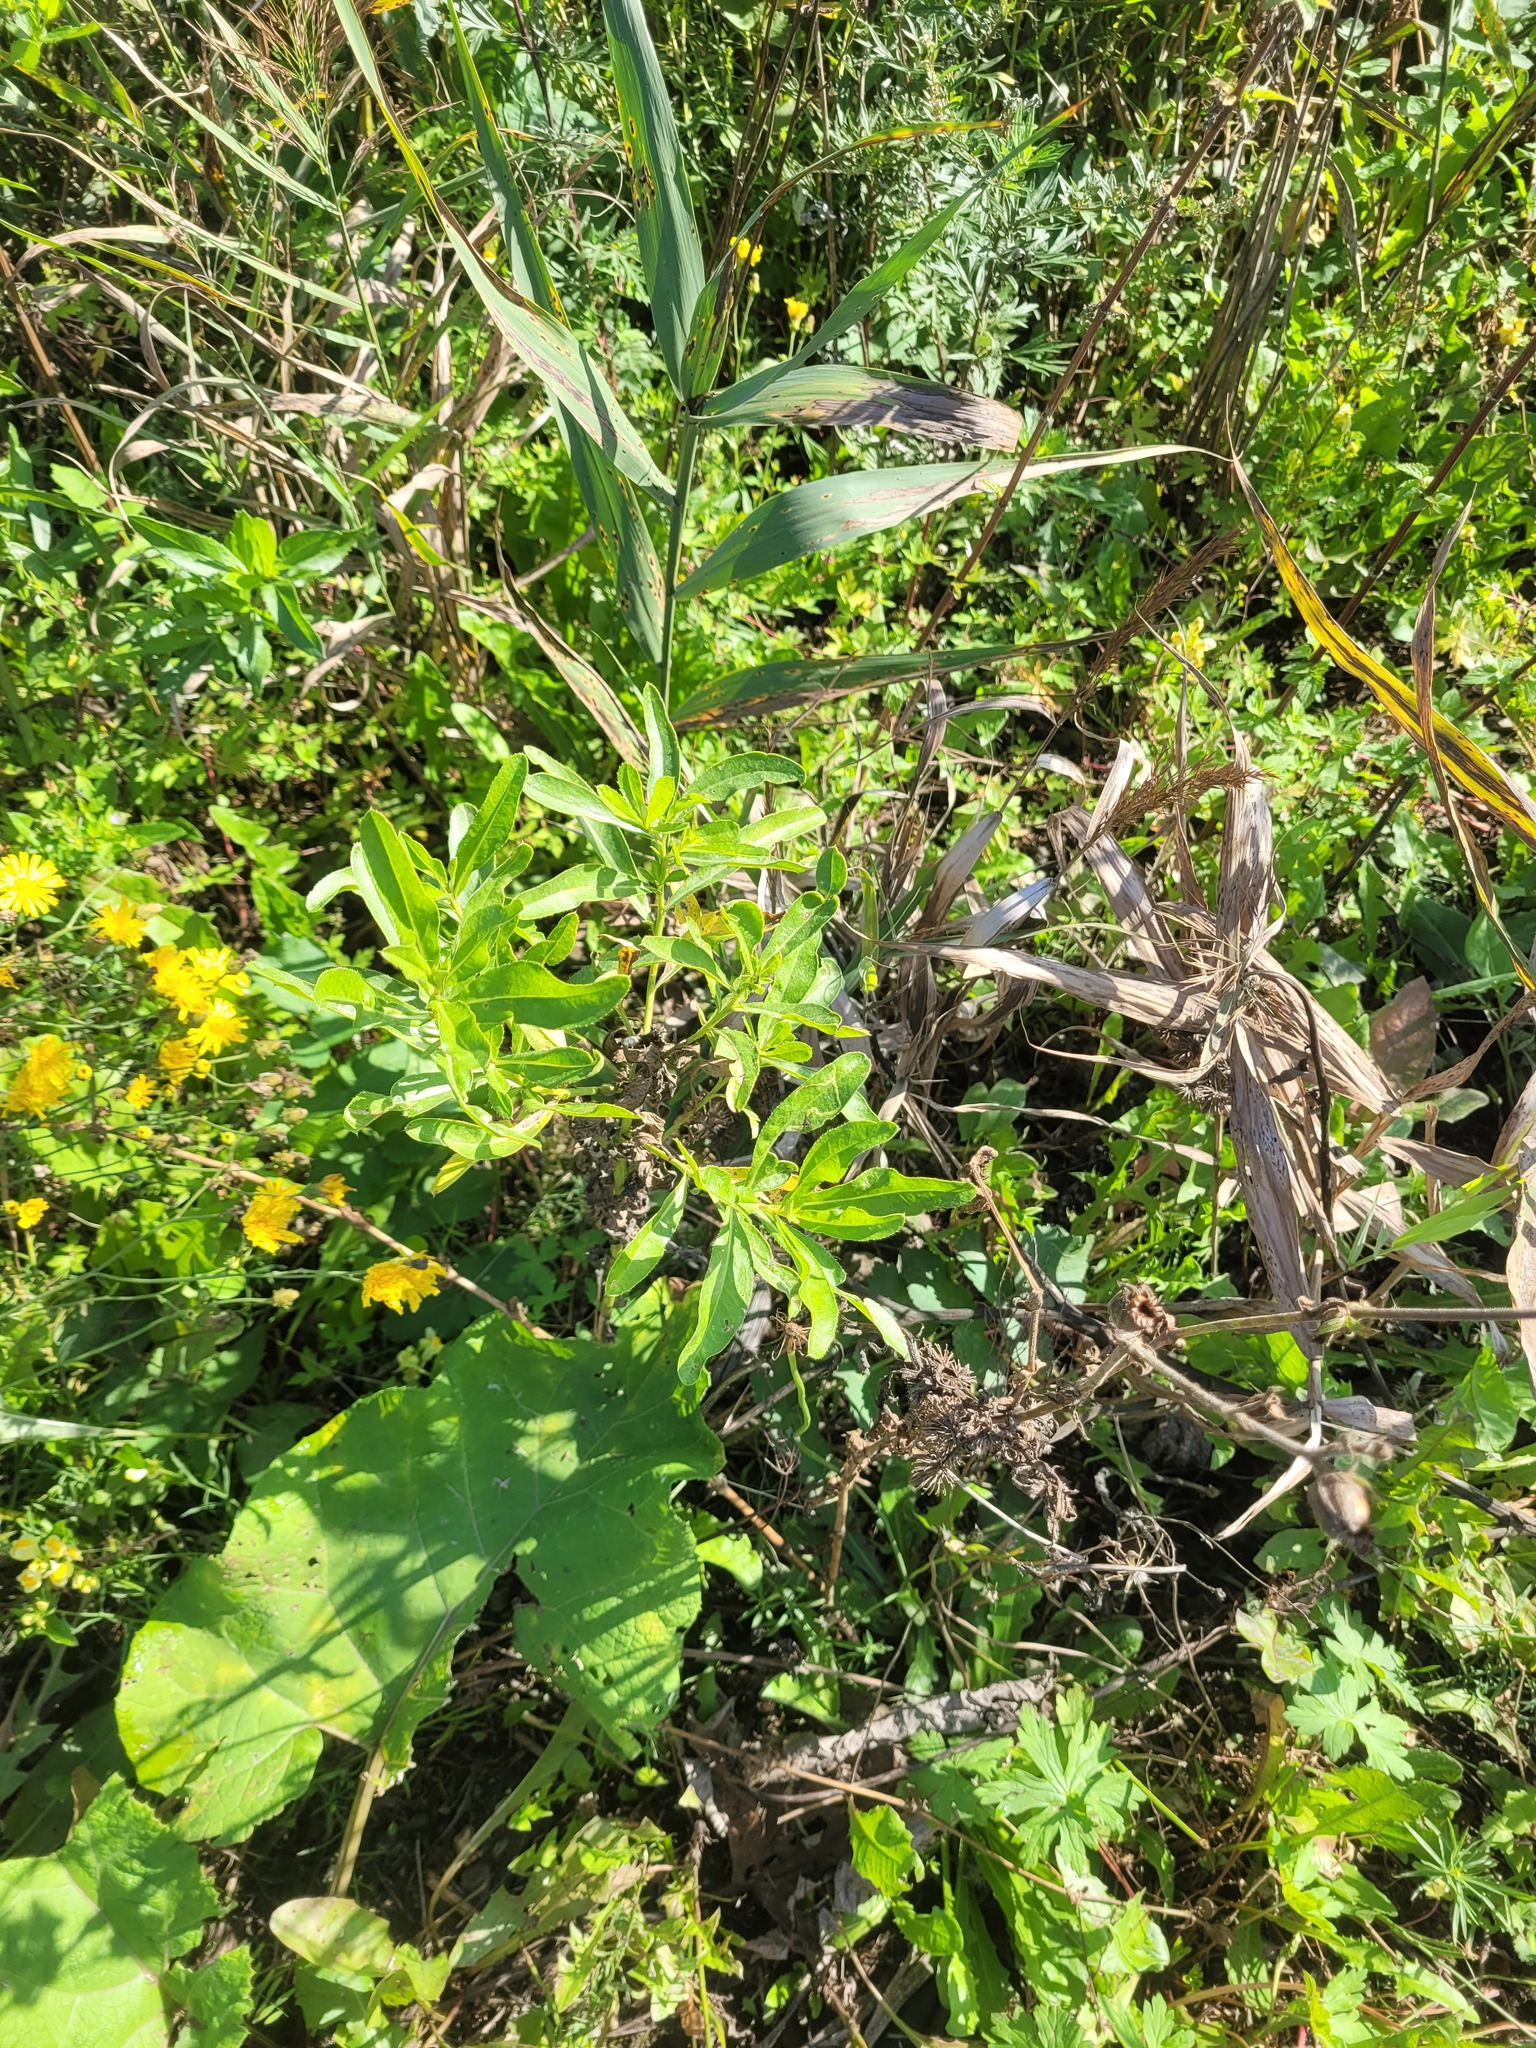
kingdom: Plantae
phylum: Tracheophyta
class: Magnoliopsida
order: Asterales
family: Asteraceae
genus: Cirsium
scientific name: Cirsium arvense
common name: Creeping thistle
